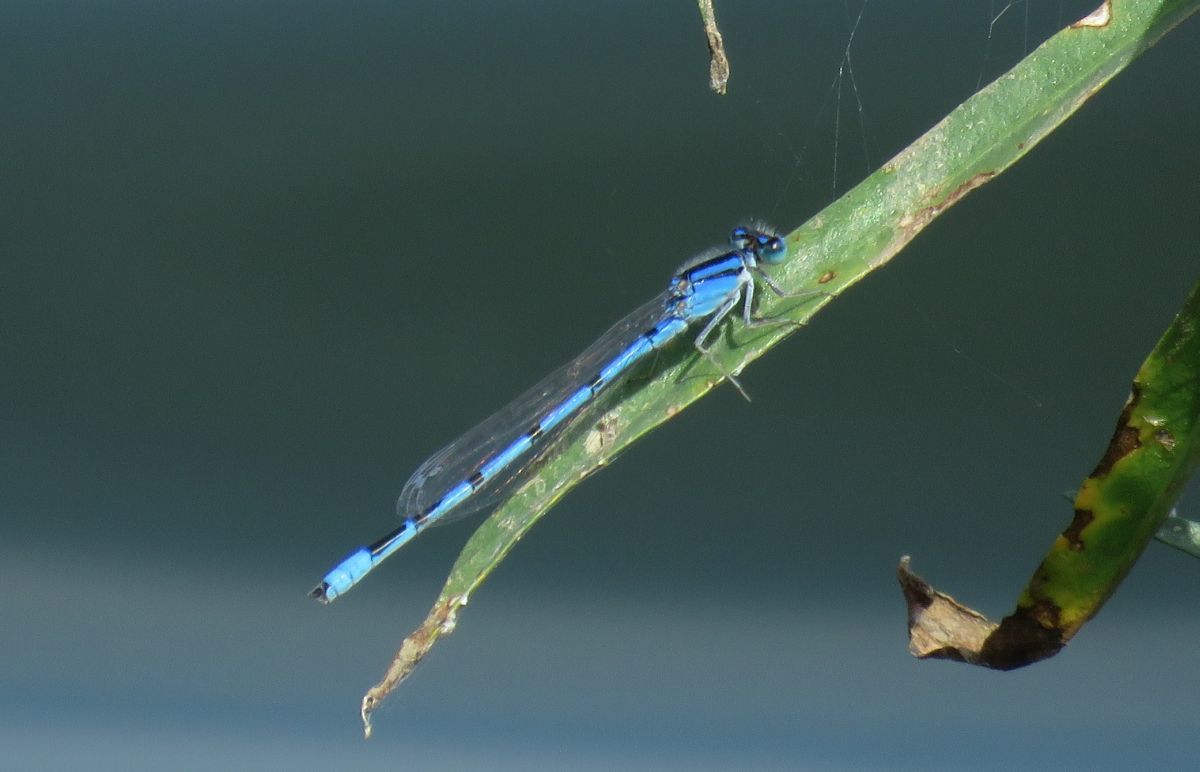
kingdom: Animalia
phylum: Arthropoda
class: Insecta
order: Odonata
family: Coenagrionidae
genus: Enallagma
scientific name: Enallagma civile
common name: Damselfly
